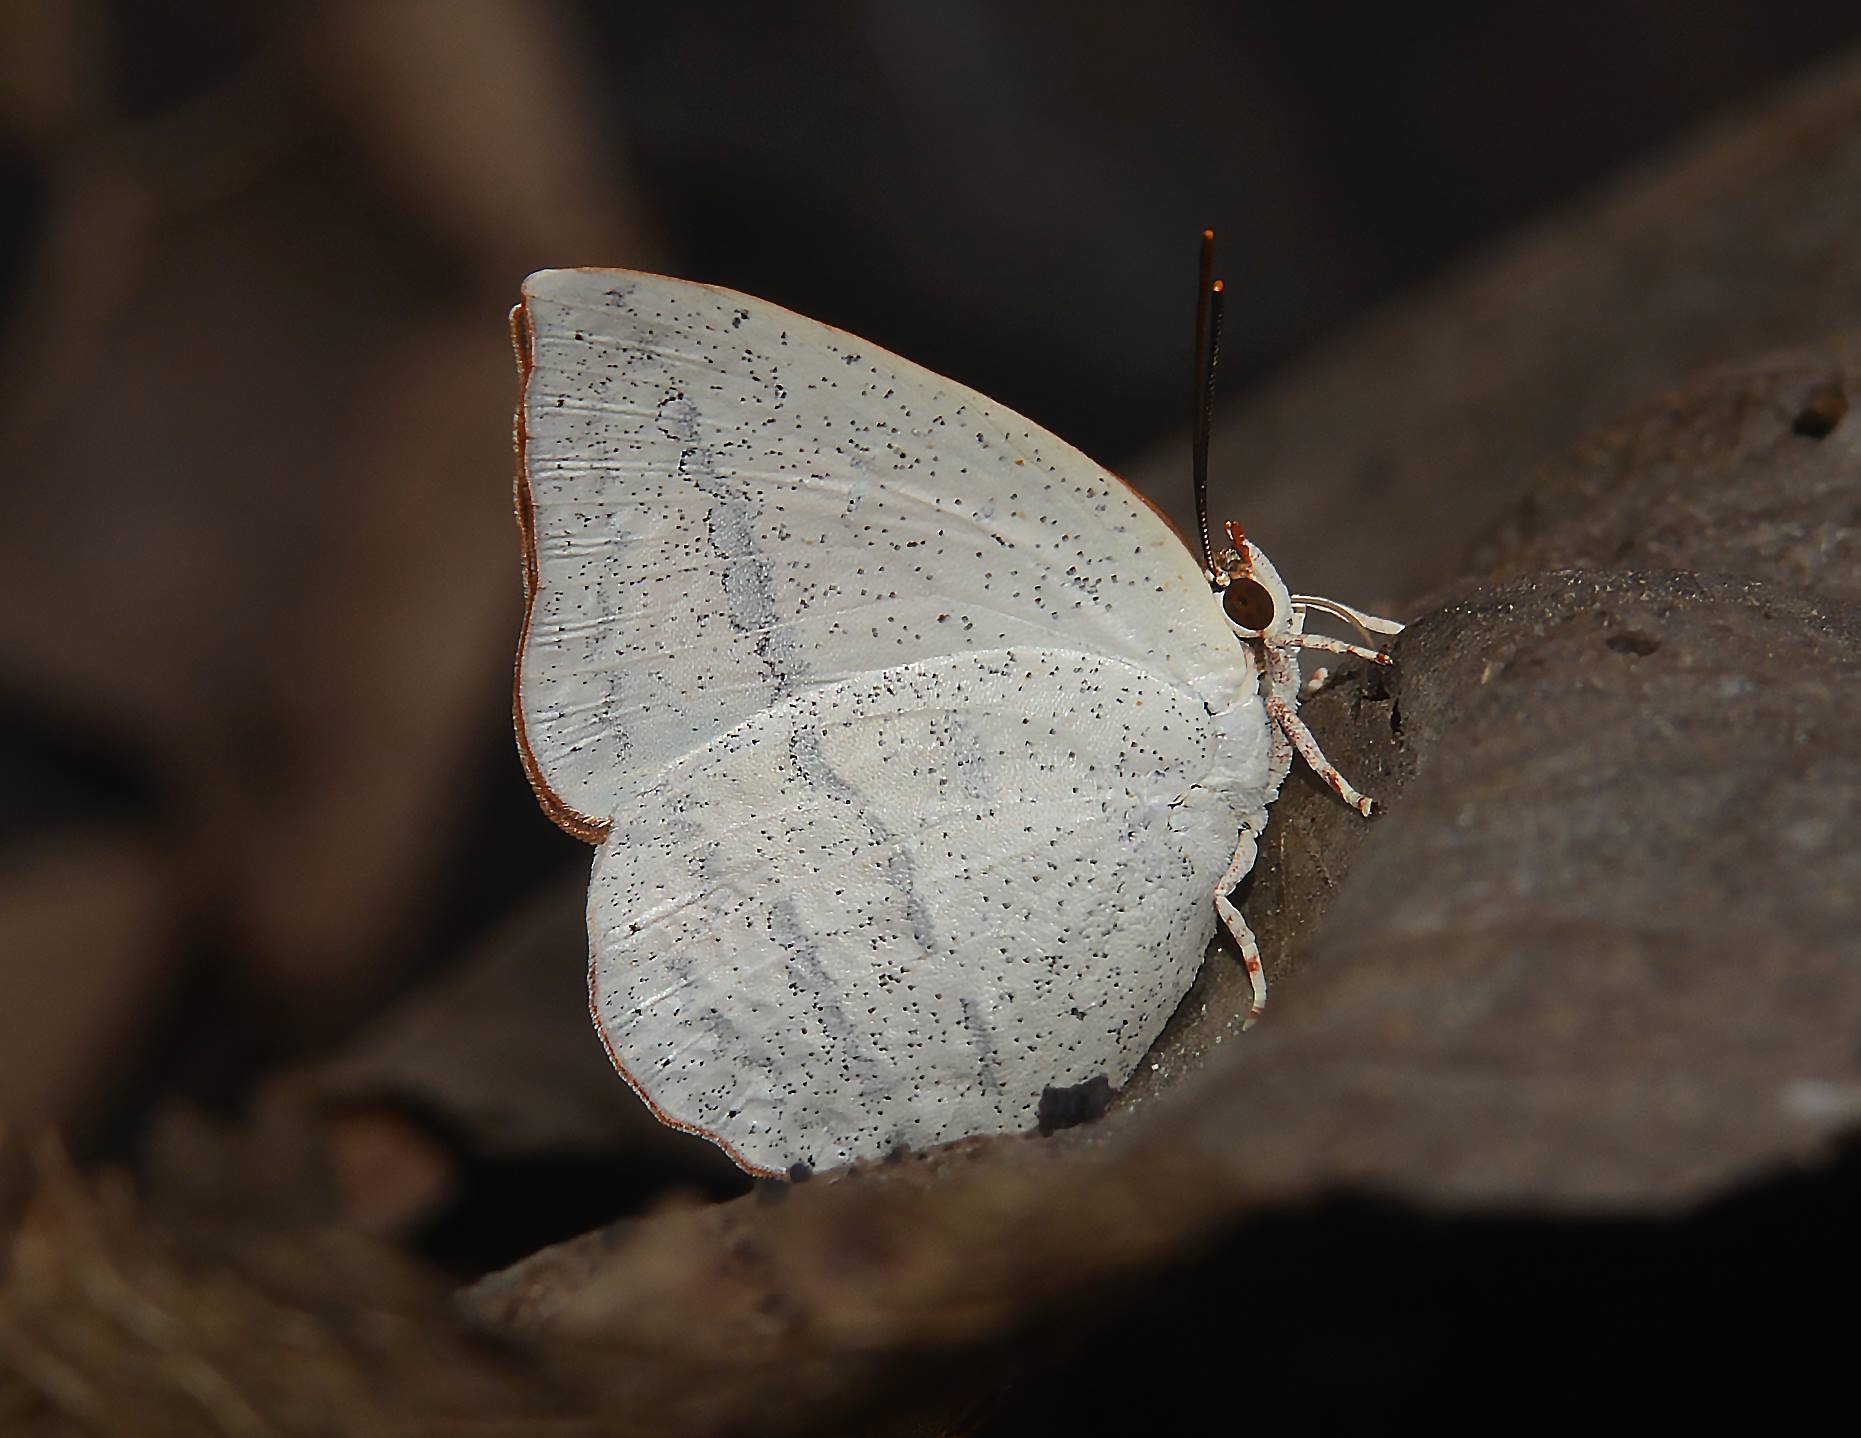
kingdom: Animalia
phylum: Arthropoda
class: Insecta
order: Lepidoptera
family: Lycaenidae
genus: Curetis
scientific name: Curetis acuta
